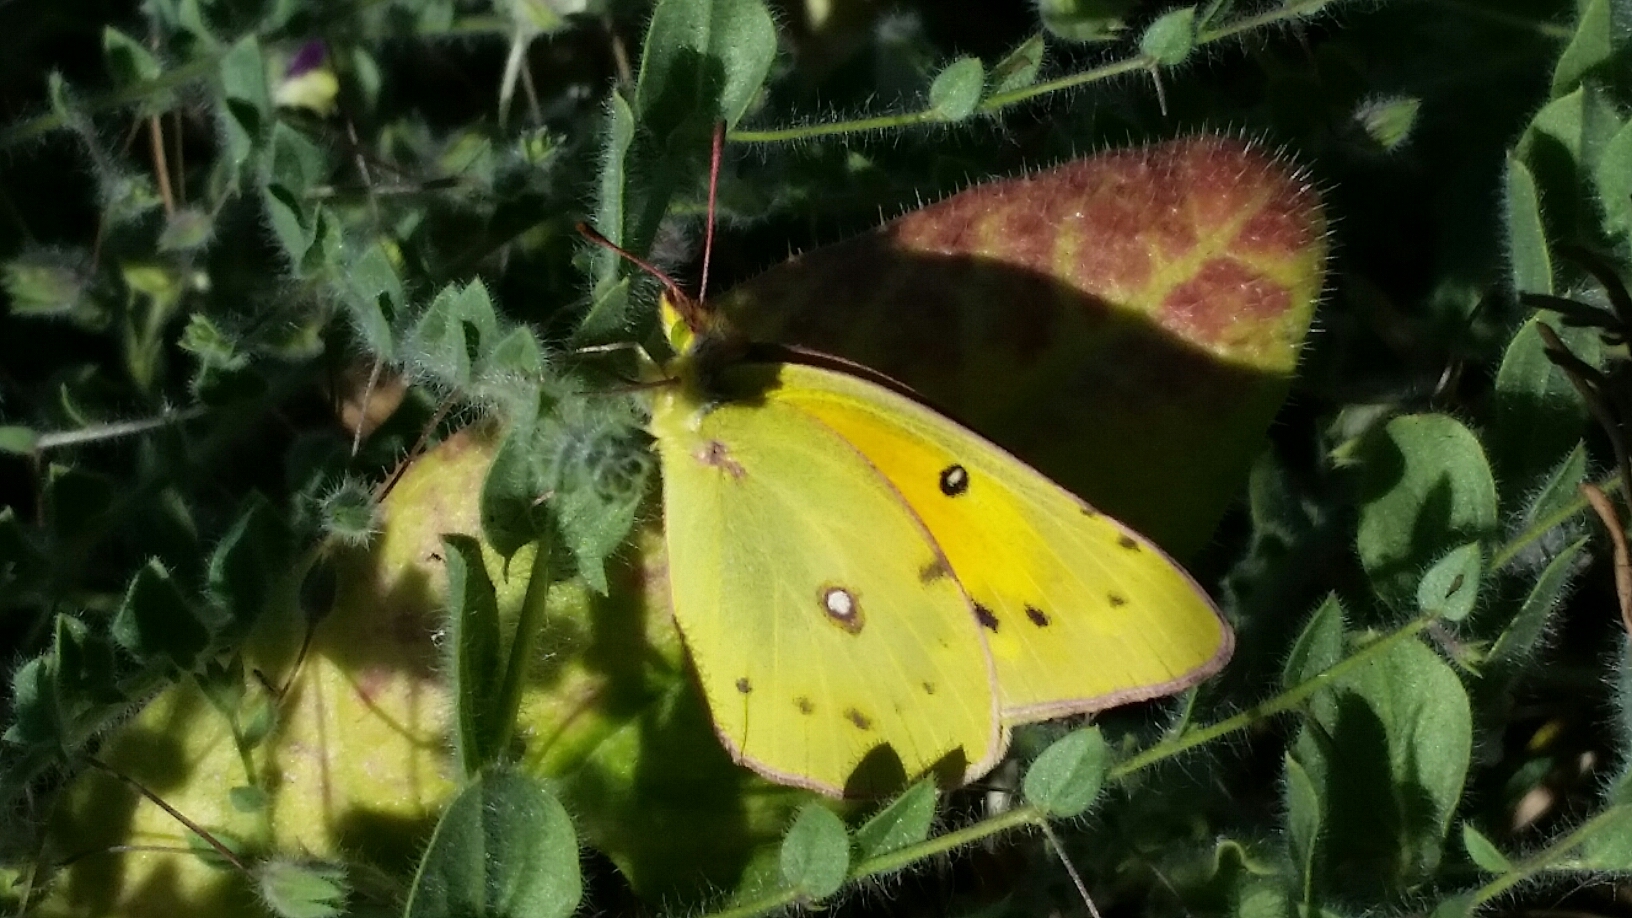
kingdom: Animalia
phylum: Arthropoda
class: Insecta
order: Lepidoptera
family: Pieridae
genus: Colias
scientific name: Colias eurytheme
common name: Alfalfa butterfly
